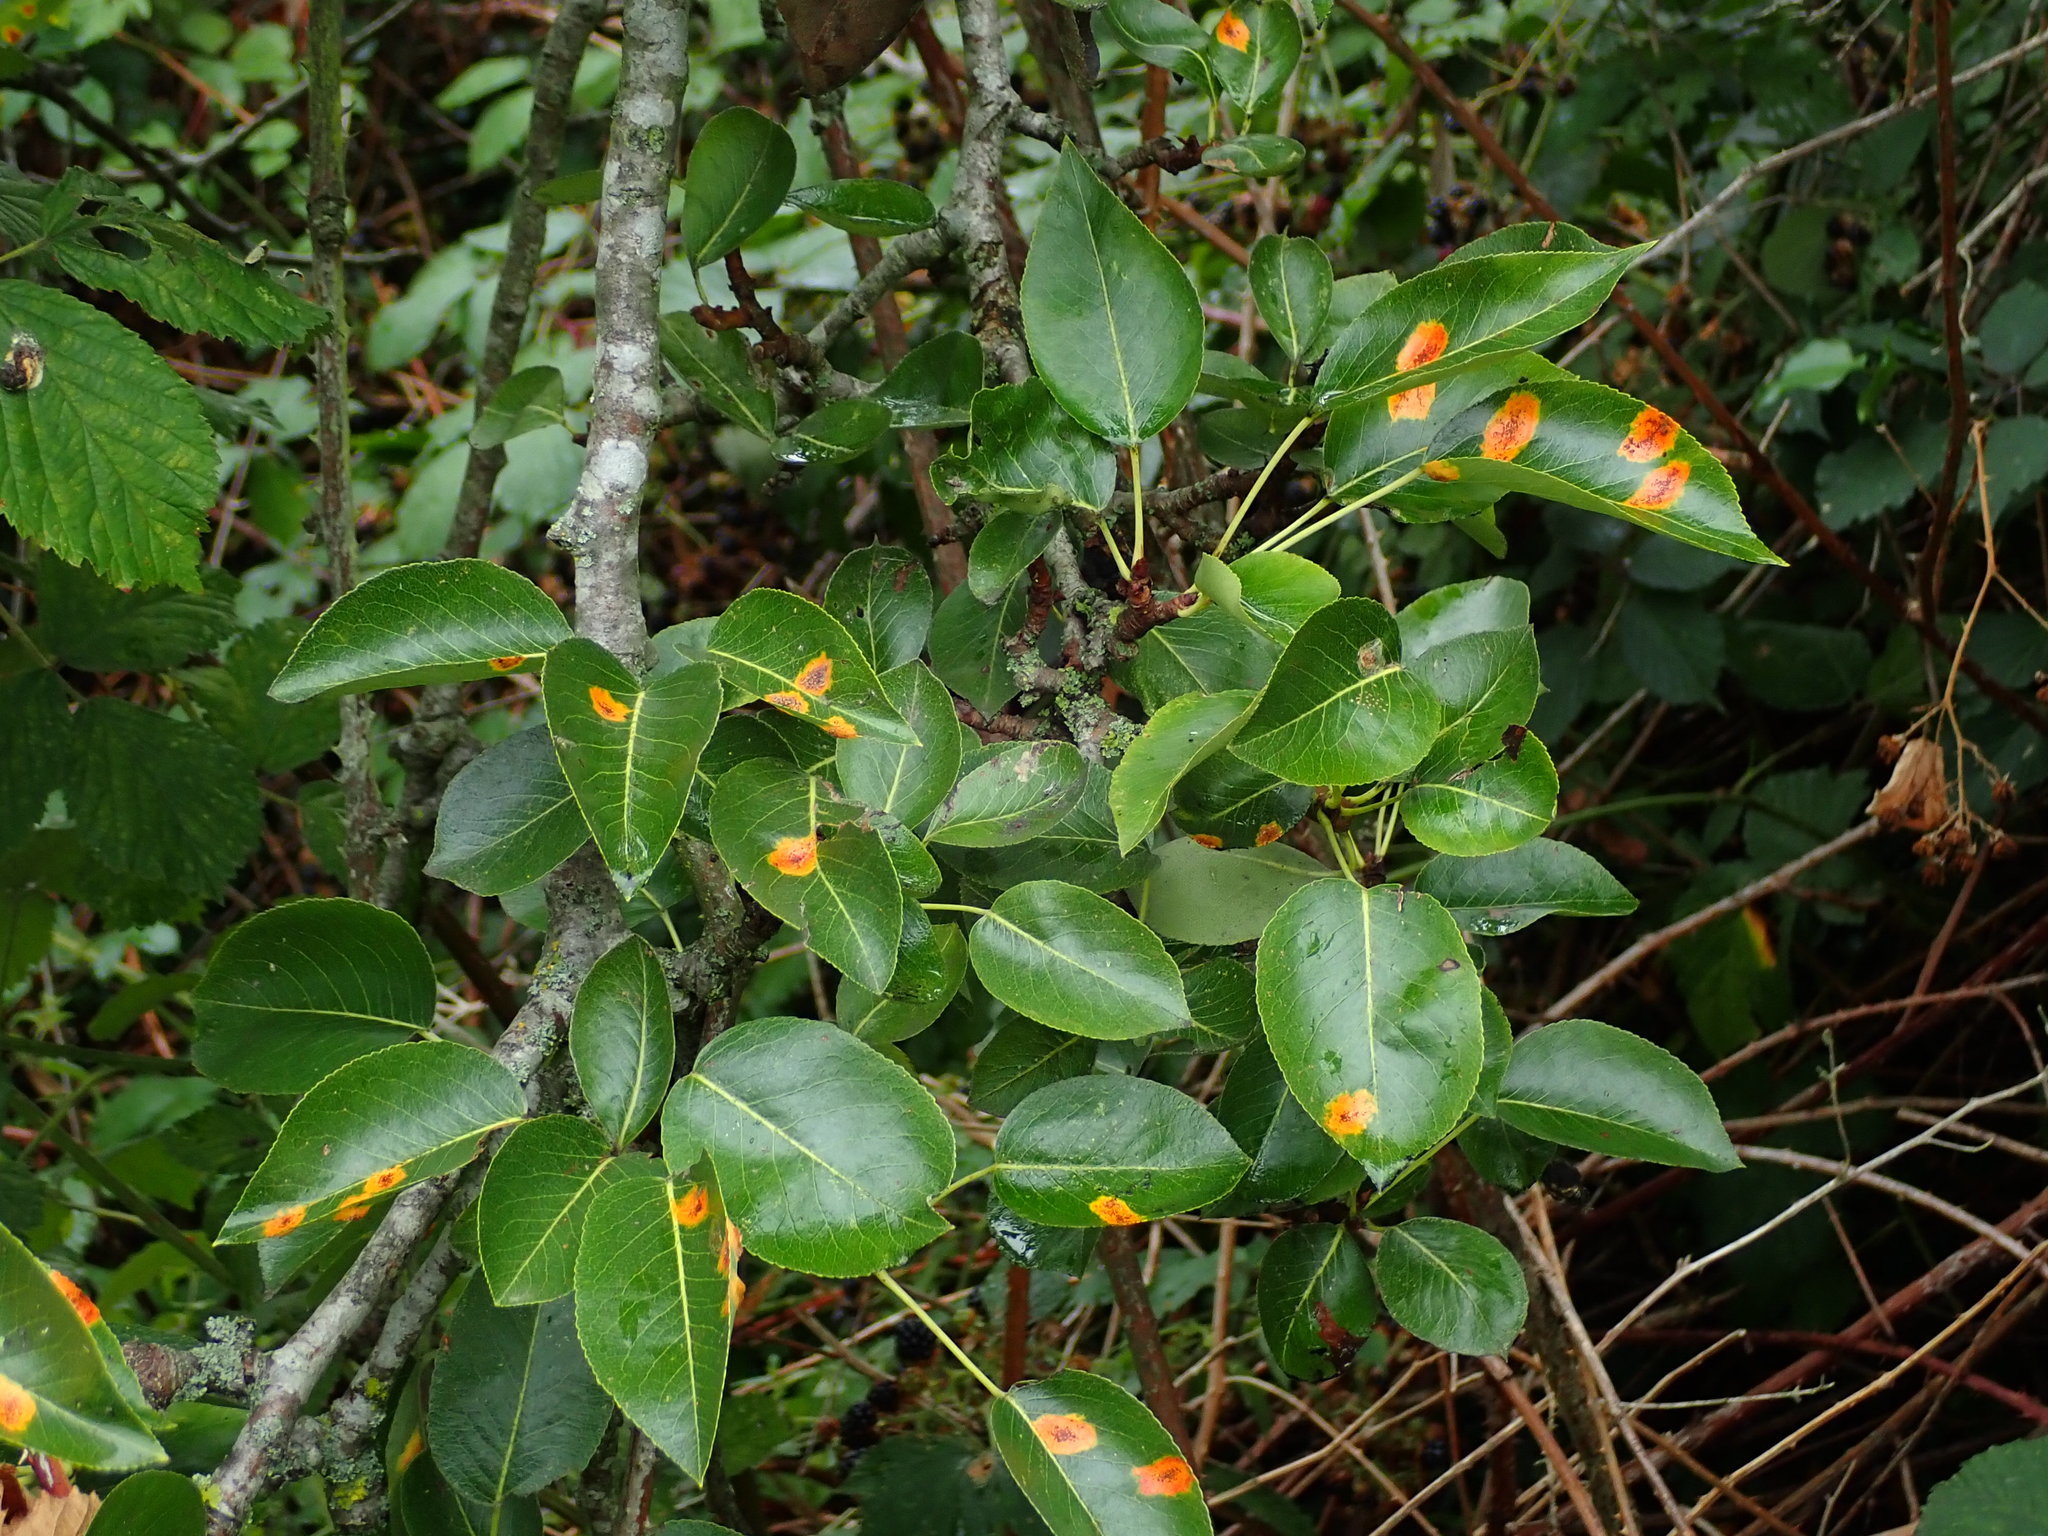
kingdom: Plantae
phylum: Tracheophyta
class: Magnoliopsida
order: Rosales
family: Rosaceae
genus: Pyrus
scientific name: Pyrus communis
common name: Pear
